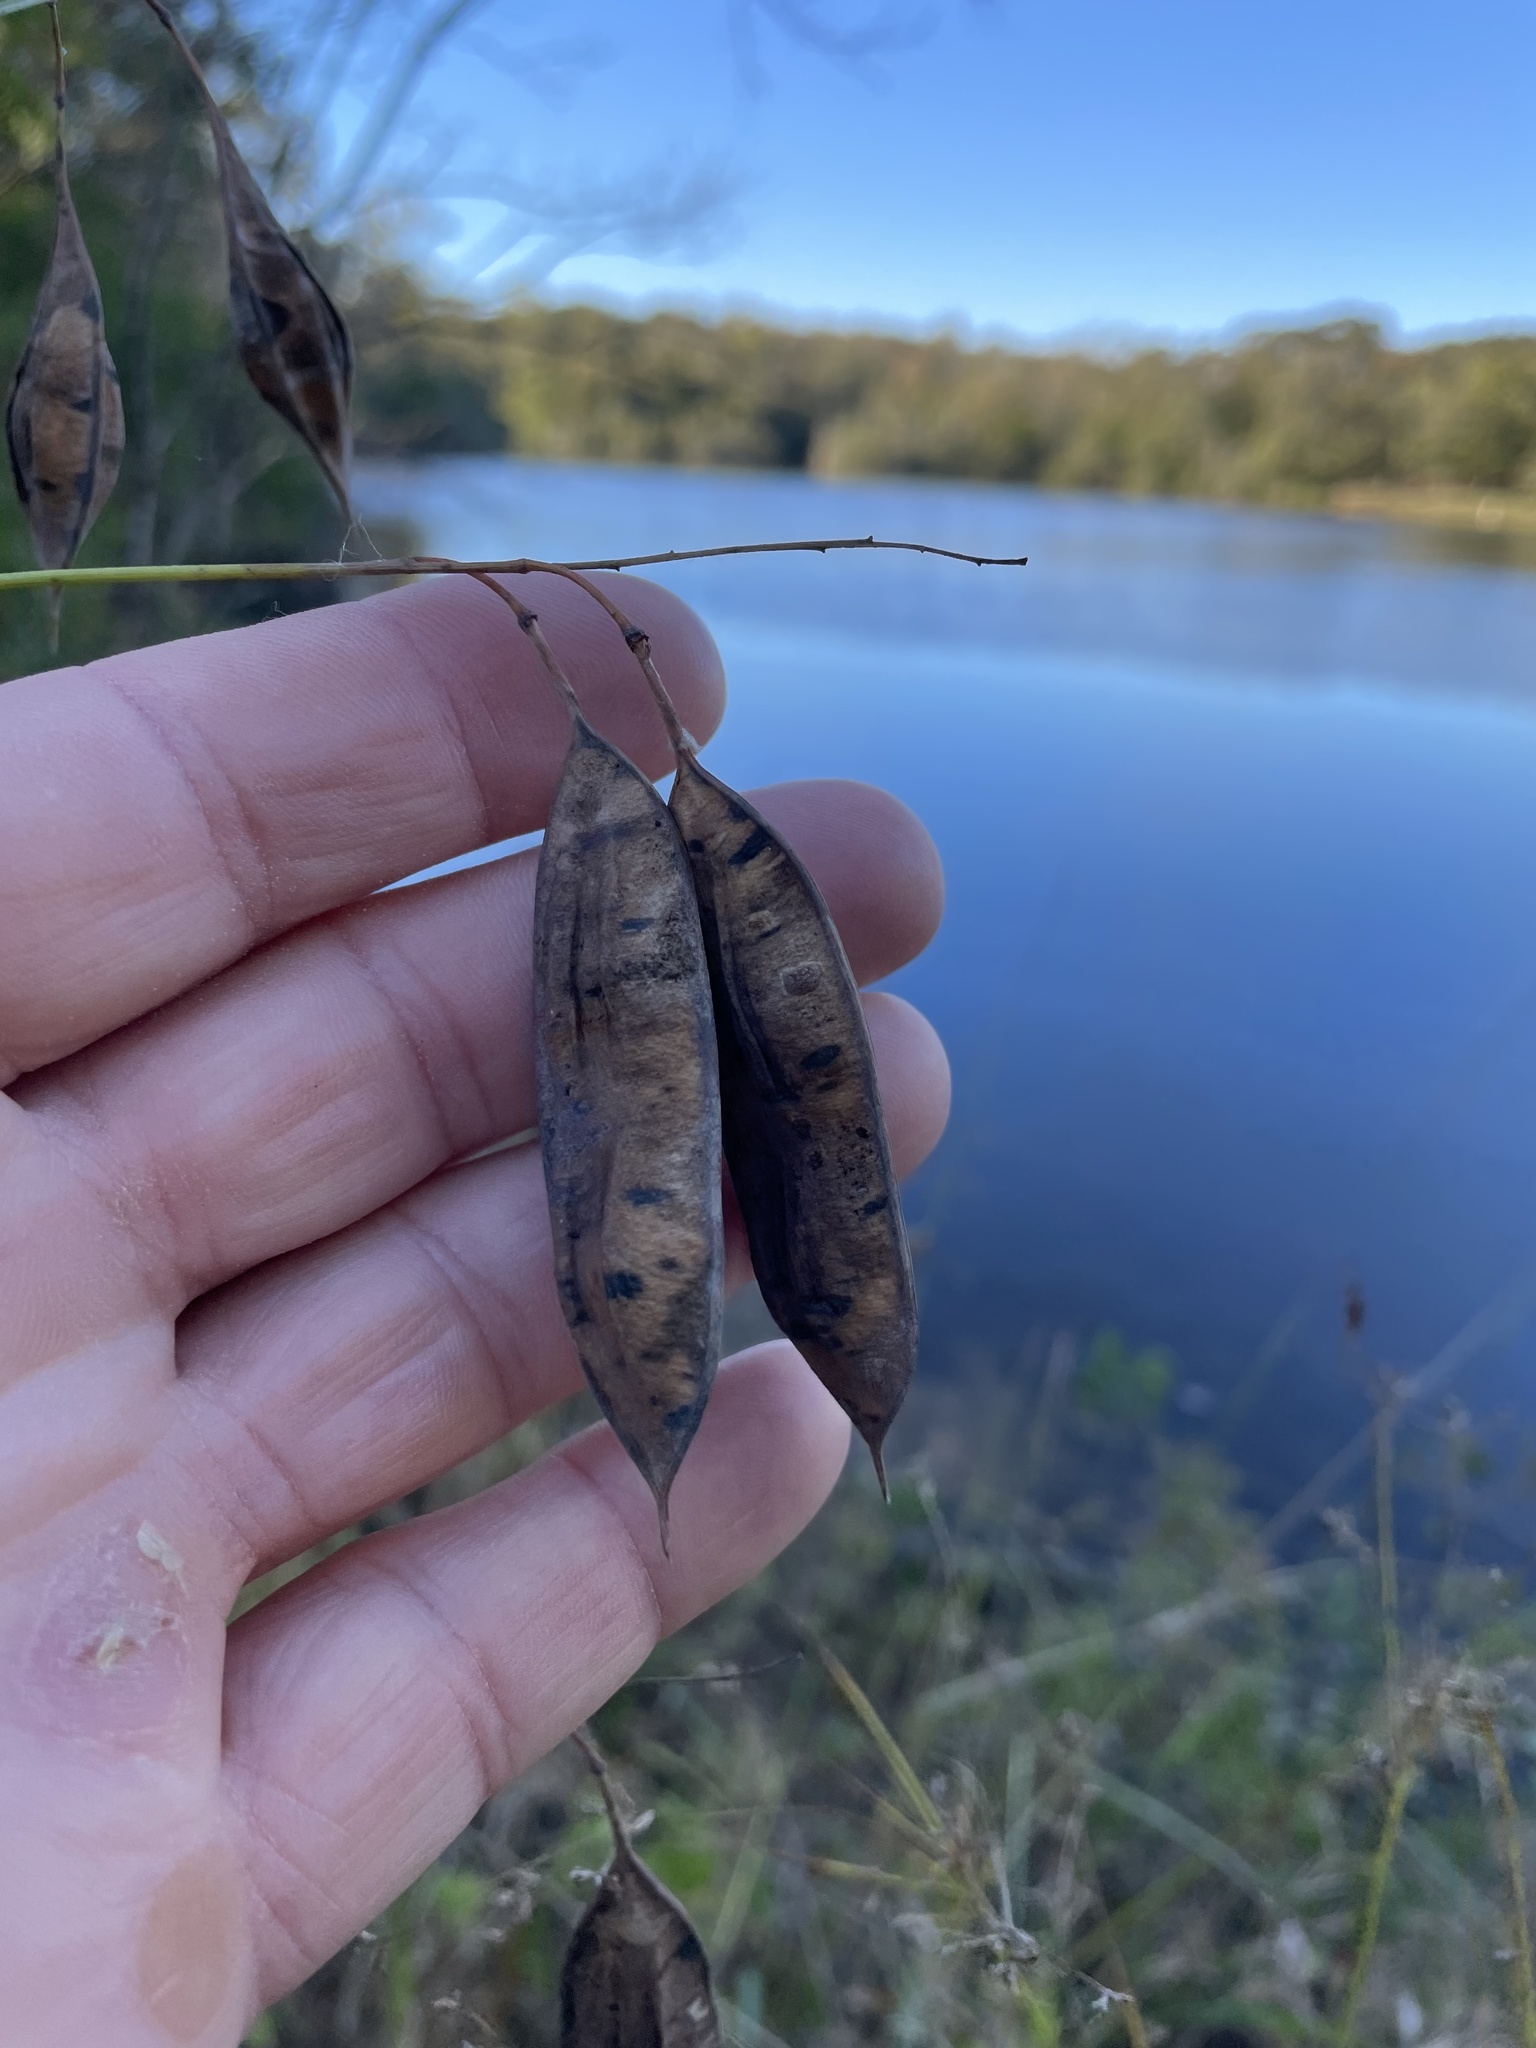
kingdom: Plantae
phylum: Tracheophyta
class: Magnoliopsida
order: Fabales
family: Fabaceae
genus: Sesbania
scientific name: Sesbania vesicaria
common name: Bagpod
